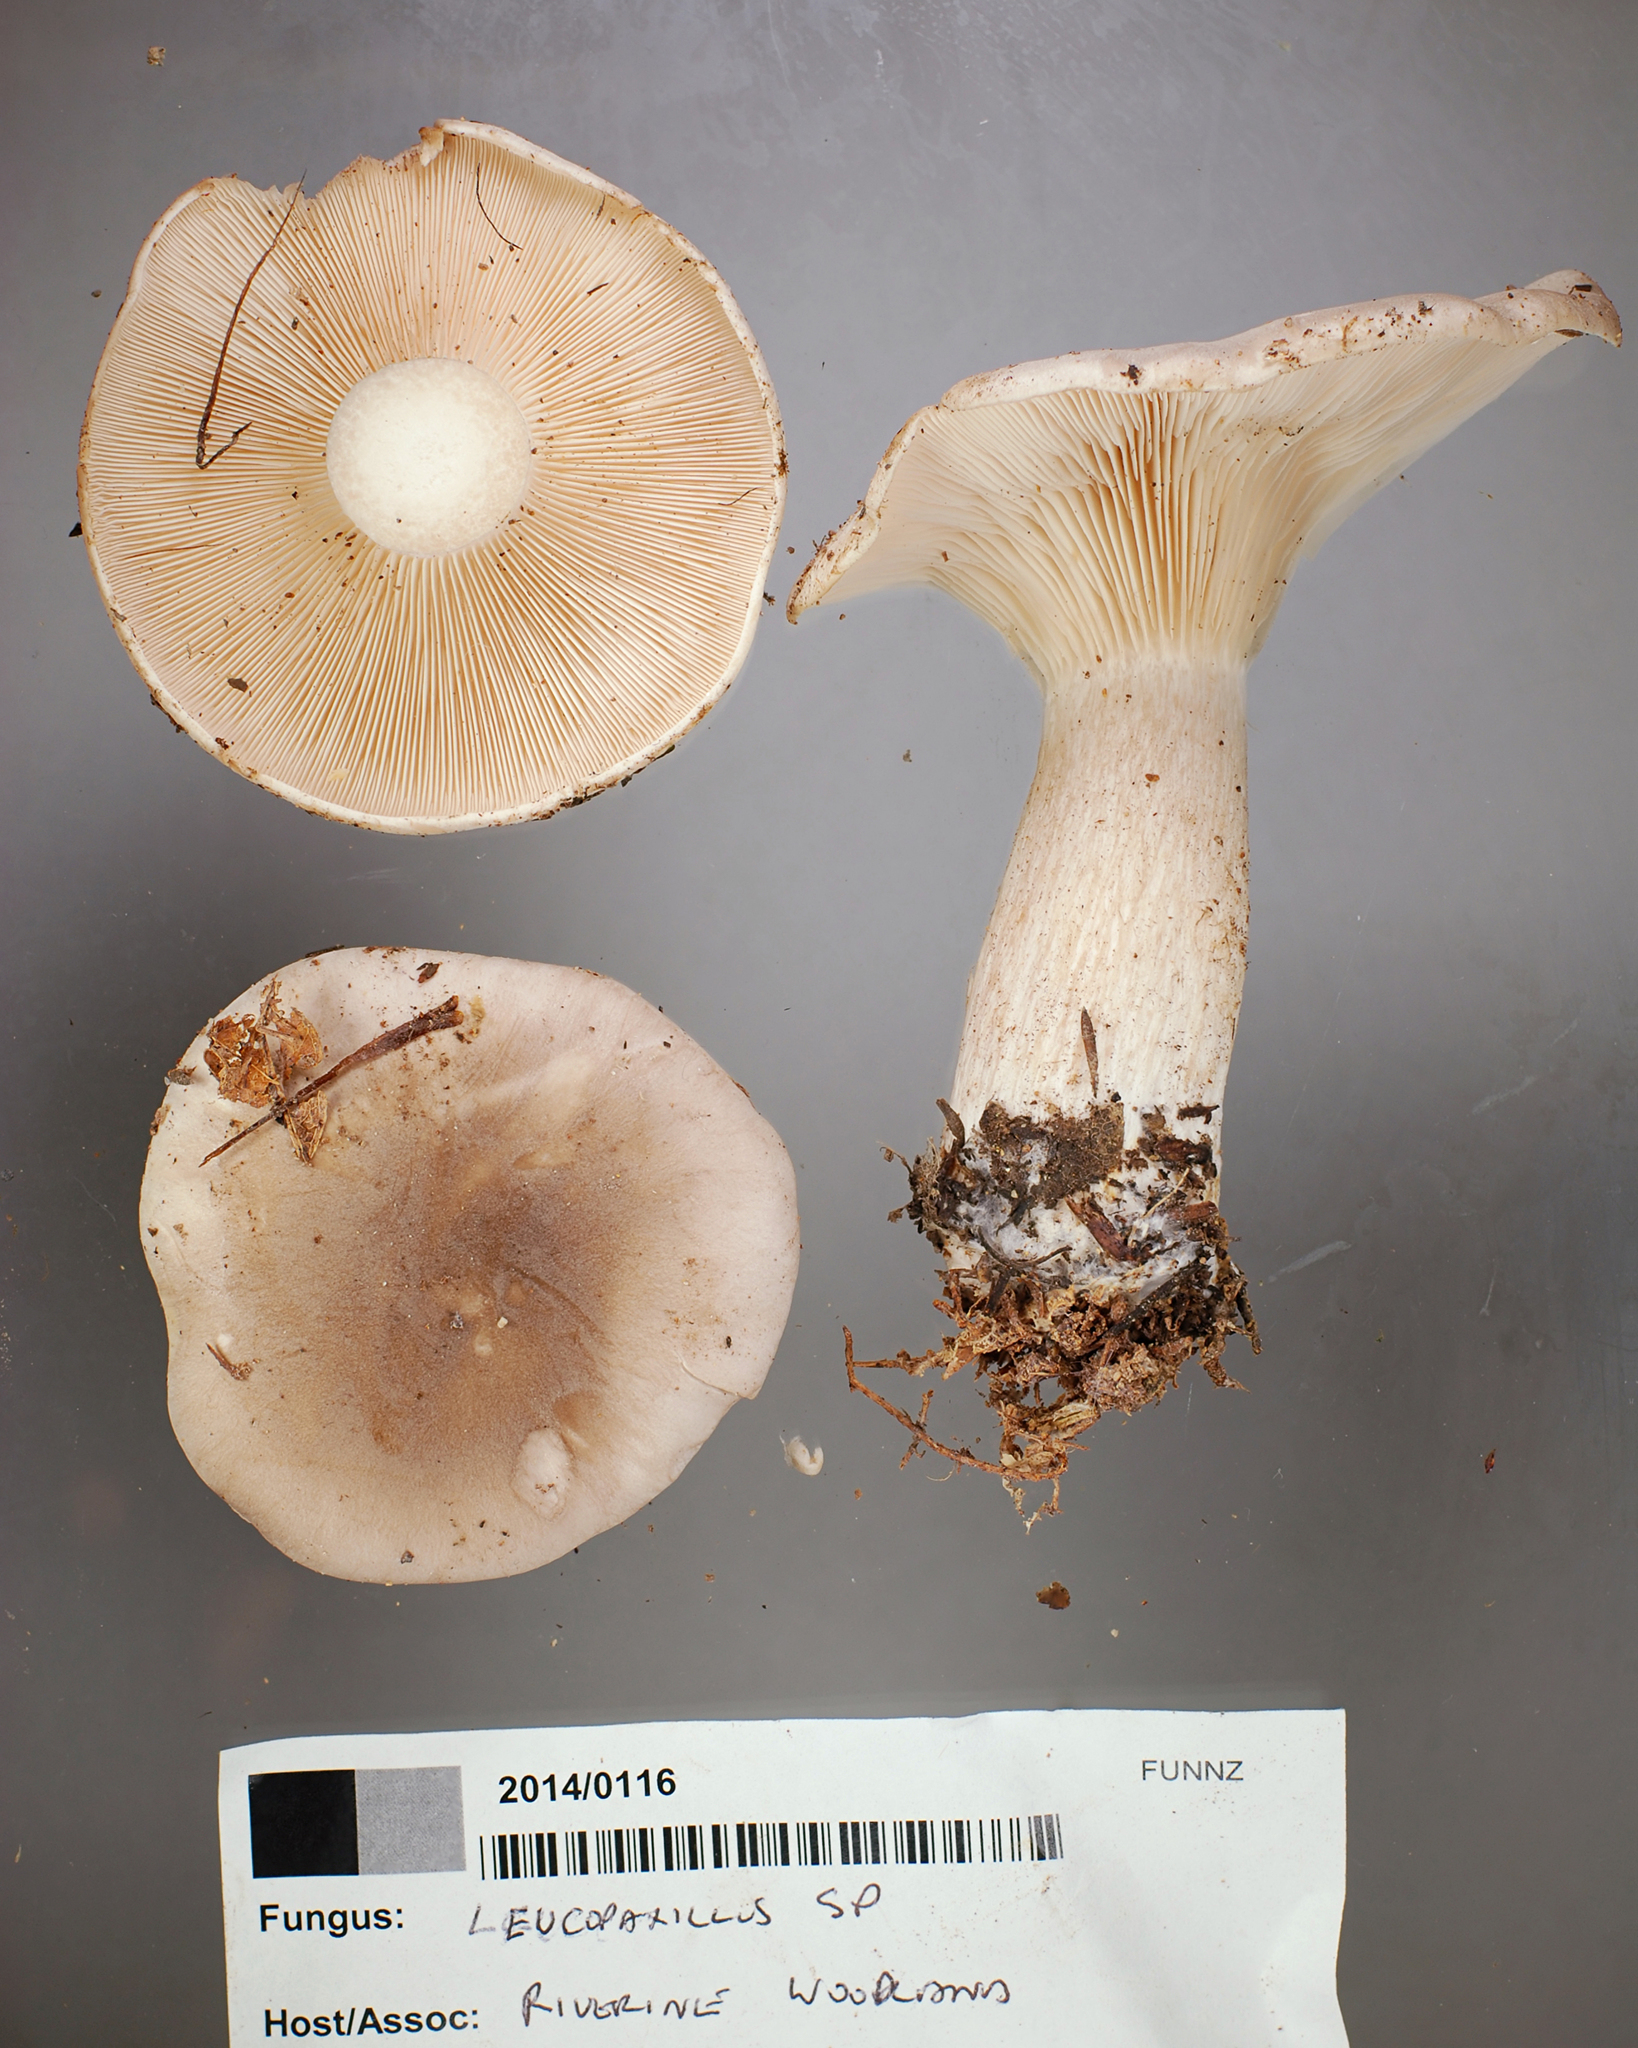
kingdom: Fungi
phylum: Basidiomycota
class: Agaricomycetes
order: Agaricales
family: Tricholomataceae
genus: Clitocybe
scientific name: Clitocybe nebularis
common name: Clouded agaric
